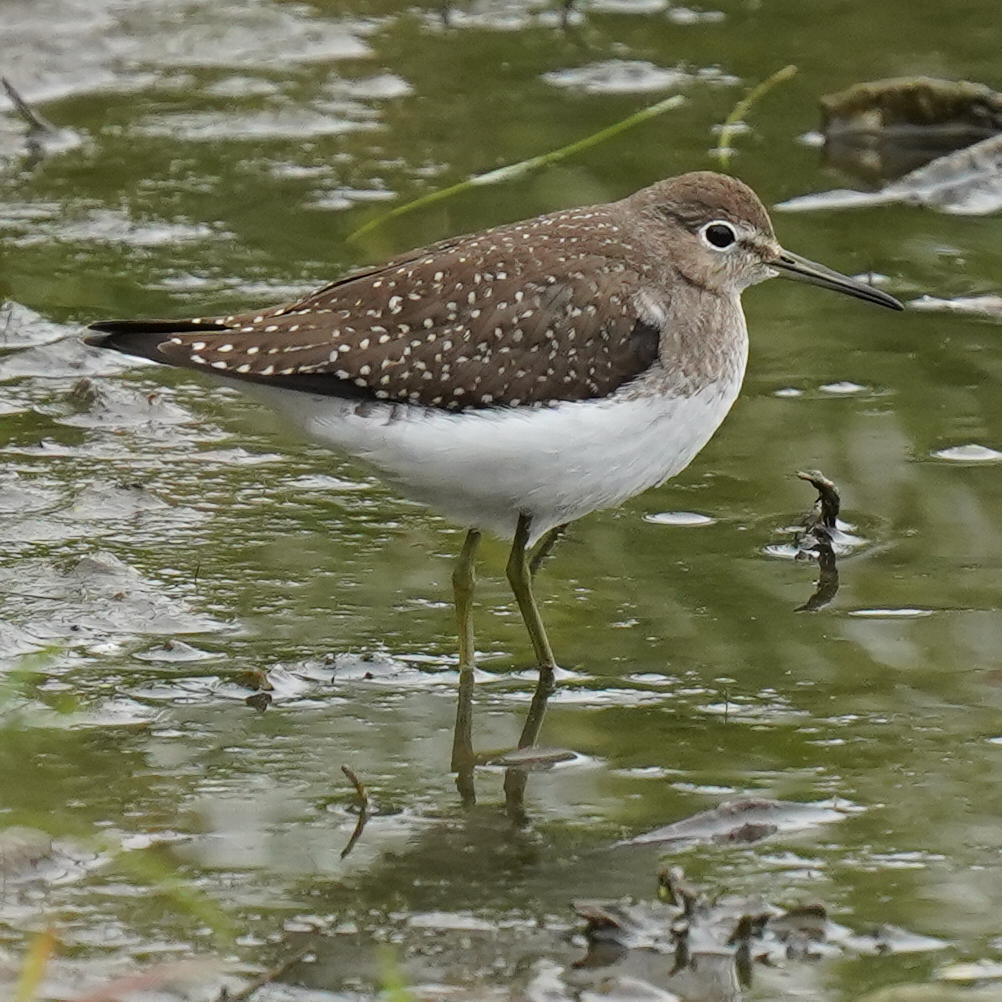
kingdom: Animalia
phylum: Chordata
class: Aves
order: Charadriiformes
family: Scolopacidae
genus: Tringa
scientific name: Tringa solitaria
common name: Solitary sandpiper
